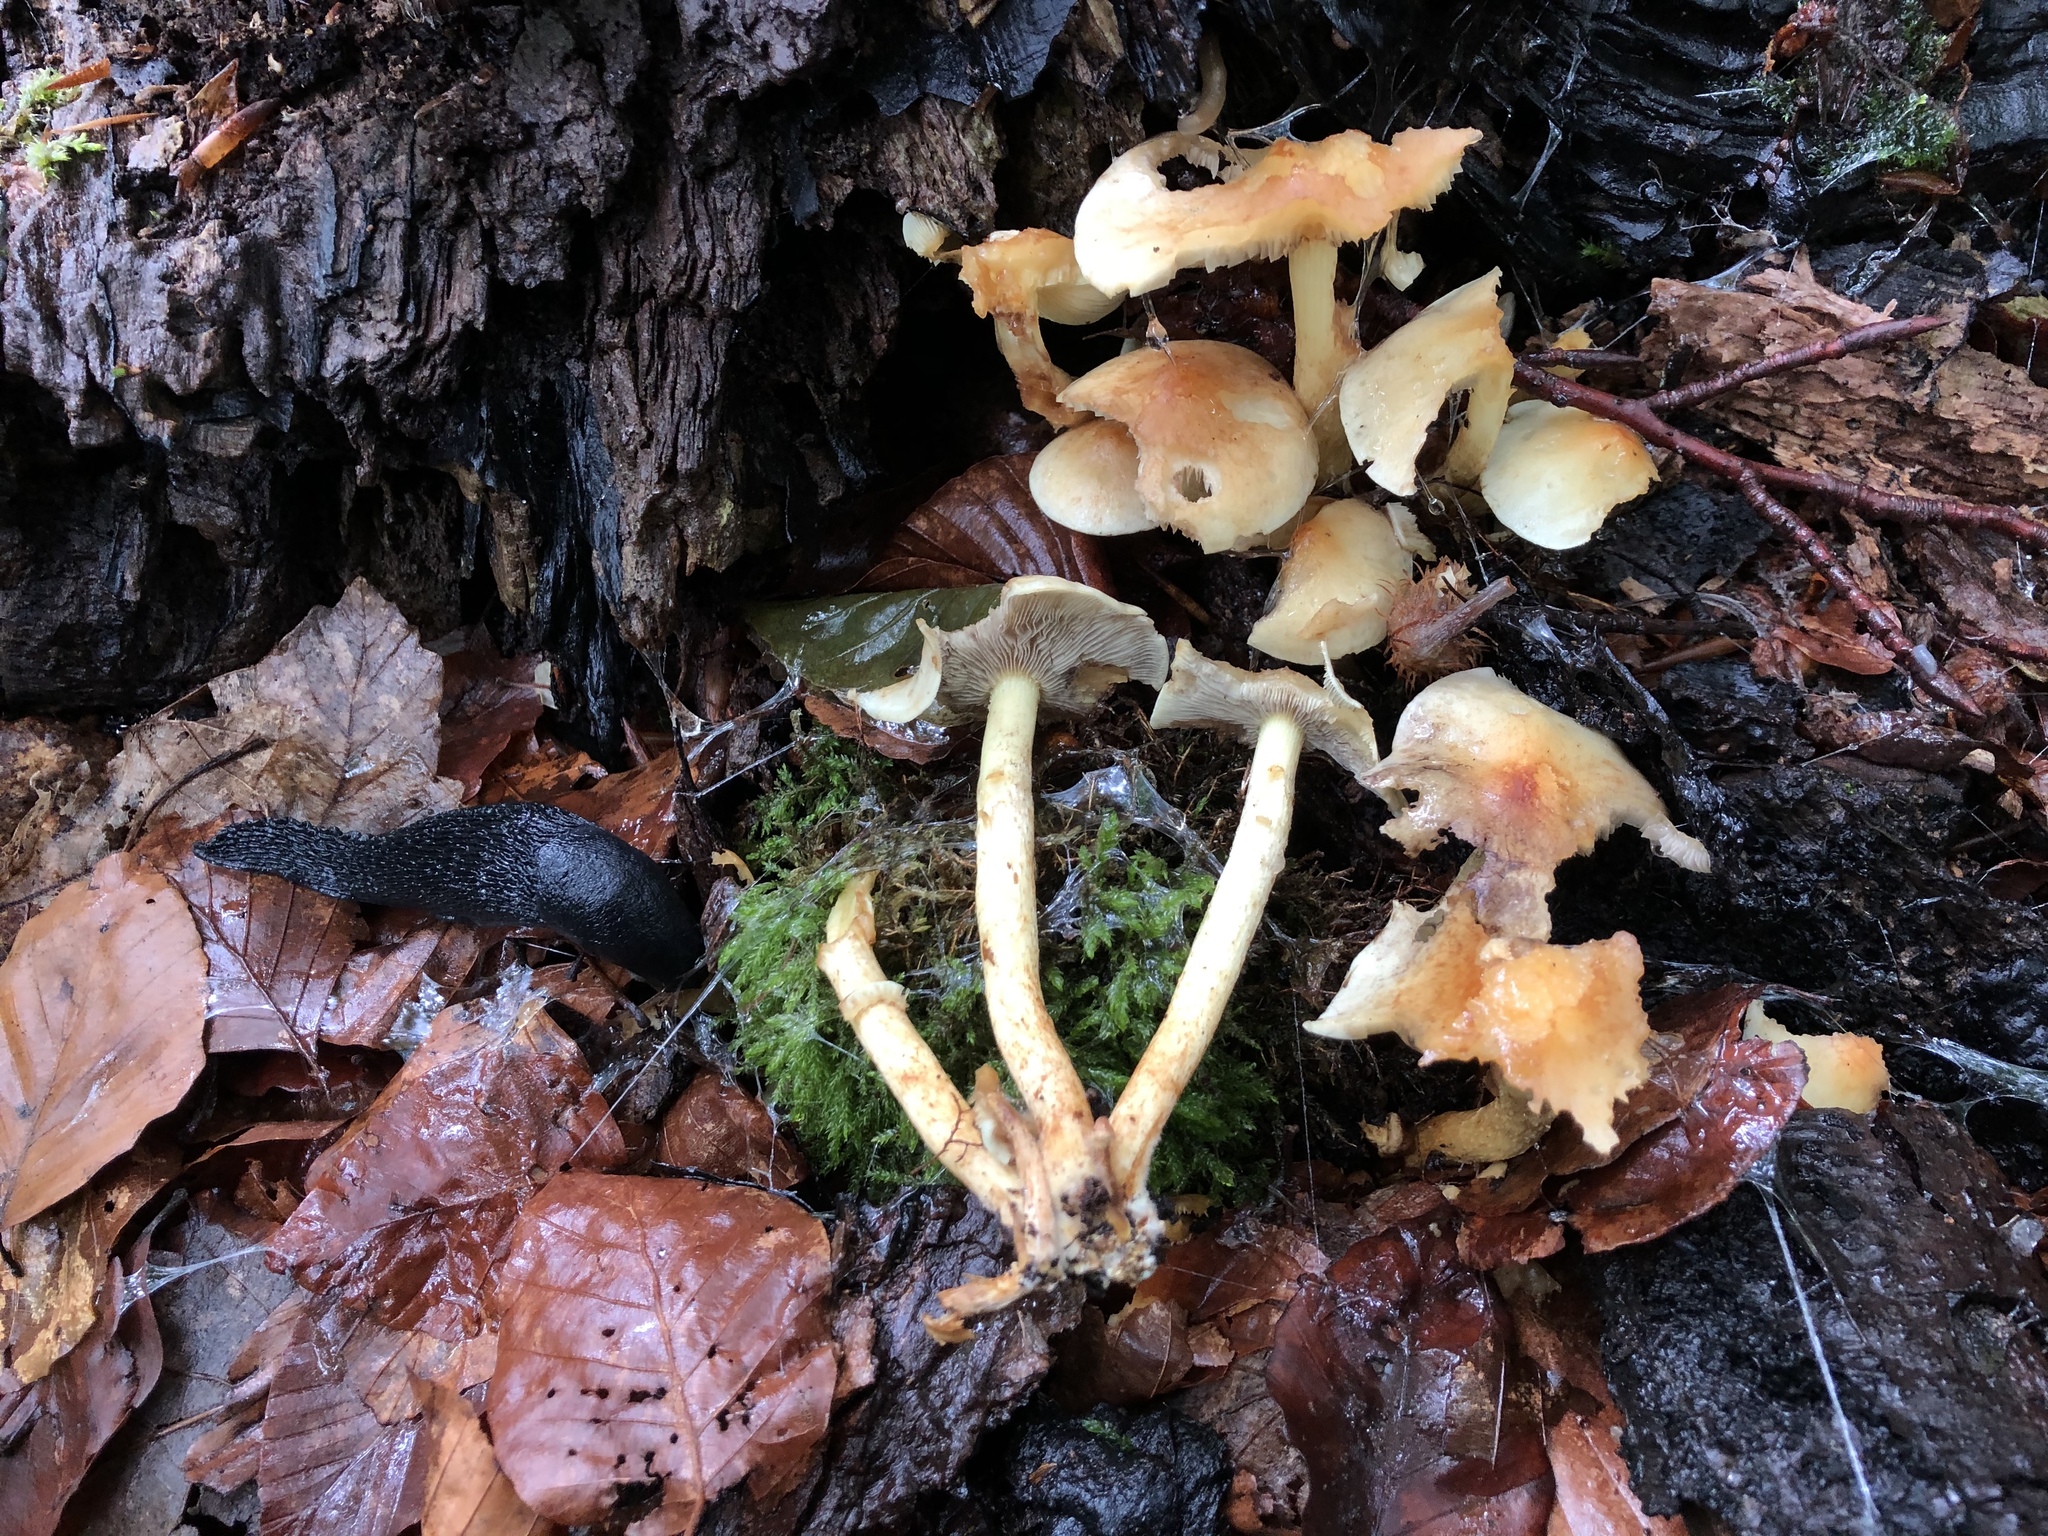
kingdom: Fungi
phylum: Basidiomycota
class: Agaricomycetes
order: Agaricales
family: Strophariaceae
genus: Hypholoma
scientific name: Hypholoma capnoides
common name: Conifer tuft
